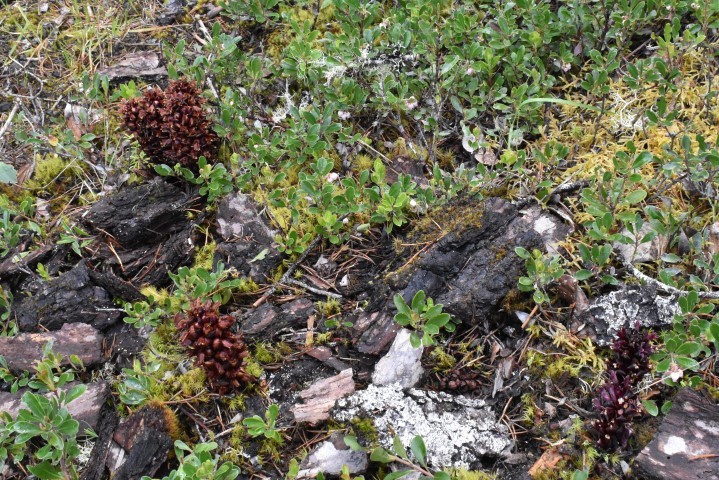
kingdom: Plantae
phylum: Tracheophyta
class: Magnoliopsida
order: Lamiales
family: Orobanchaceae
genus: Kopsiopsis
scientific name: Kopsiopsis hookeri
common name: Hooker's groundcone
